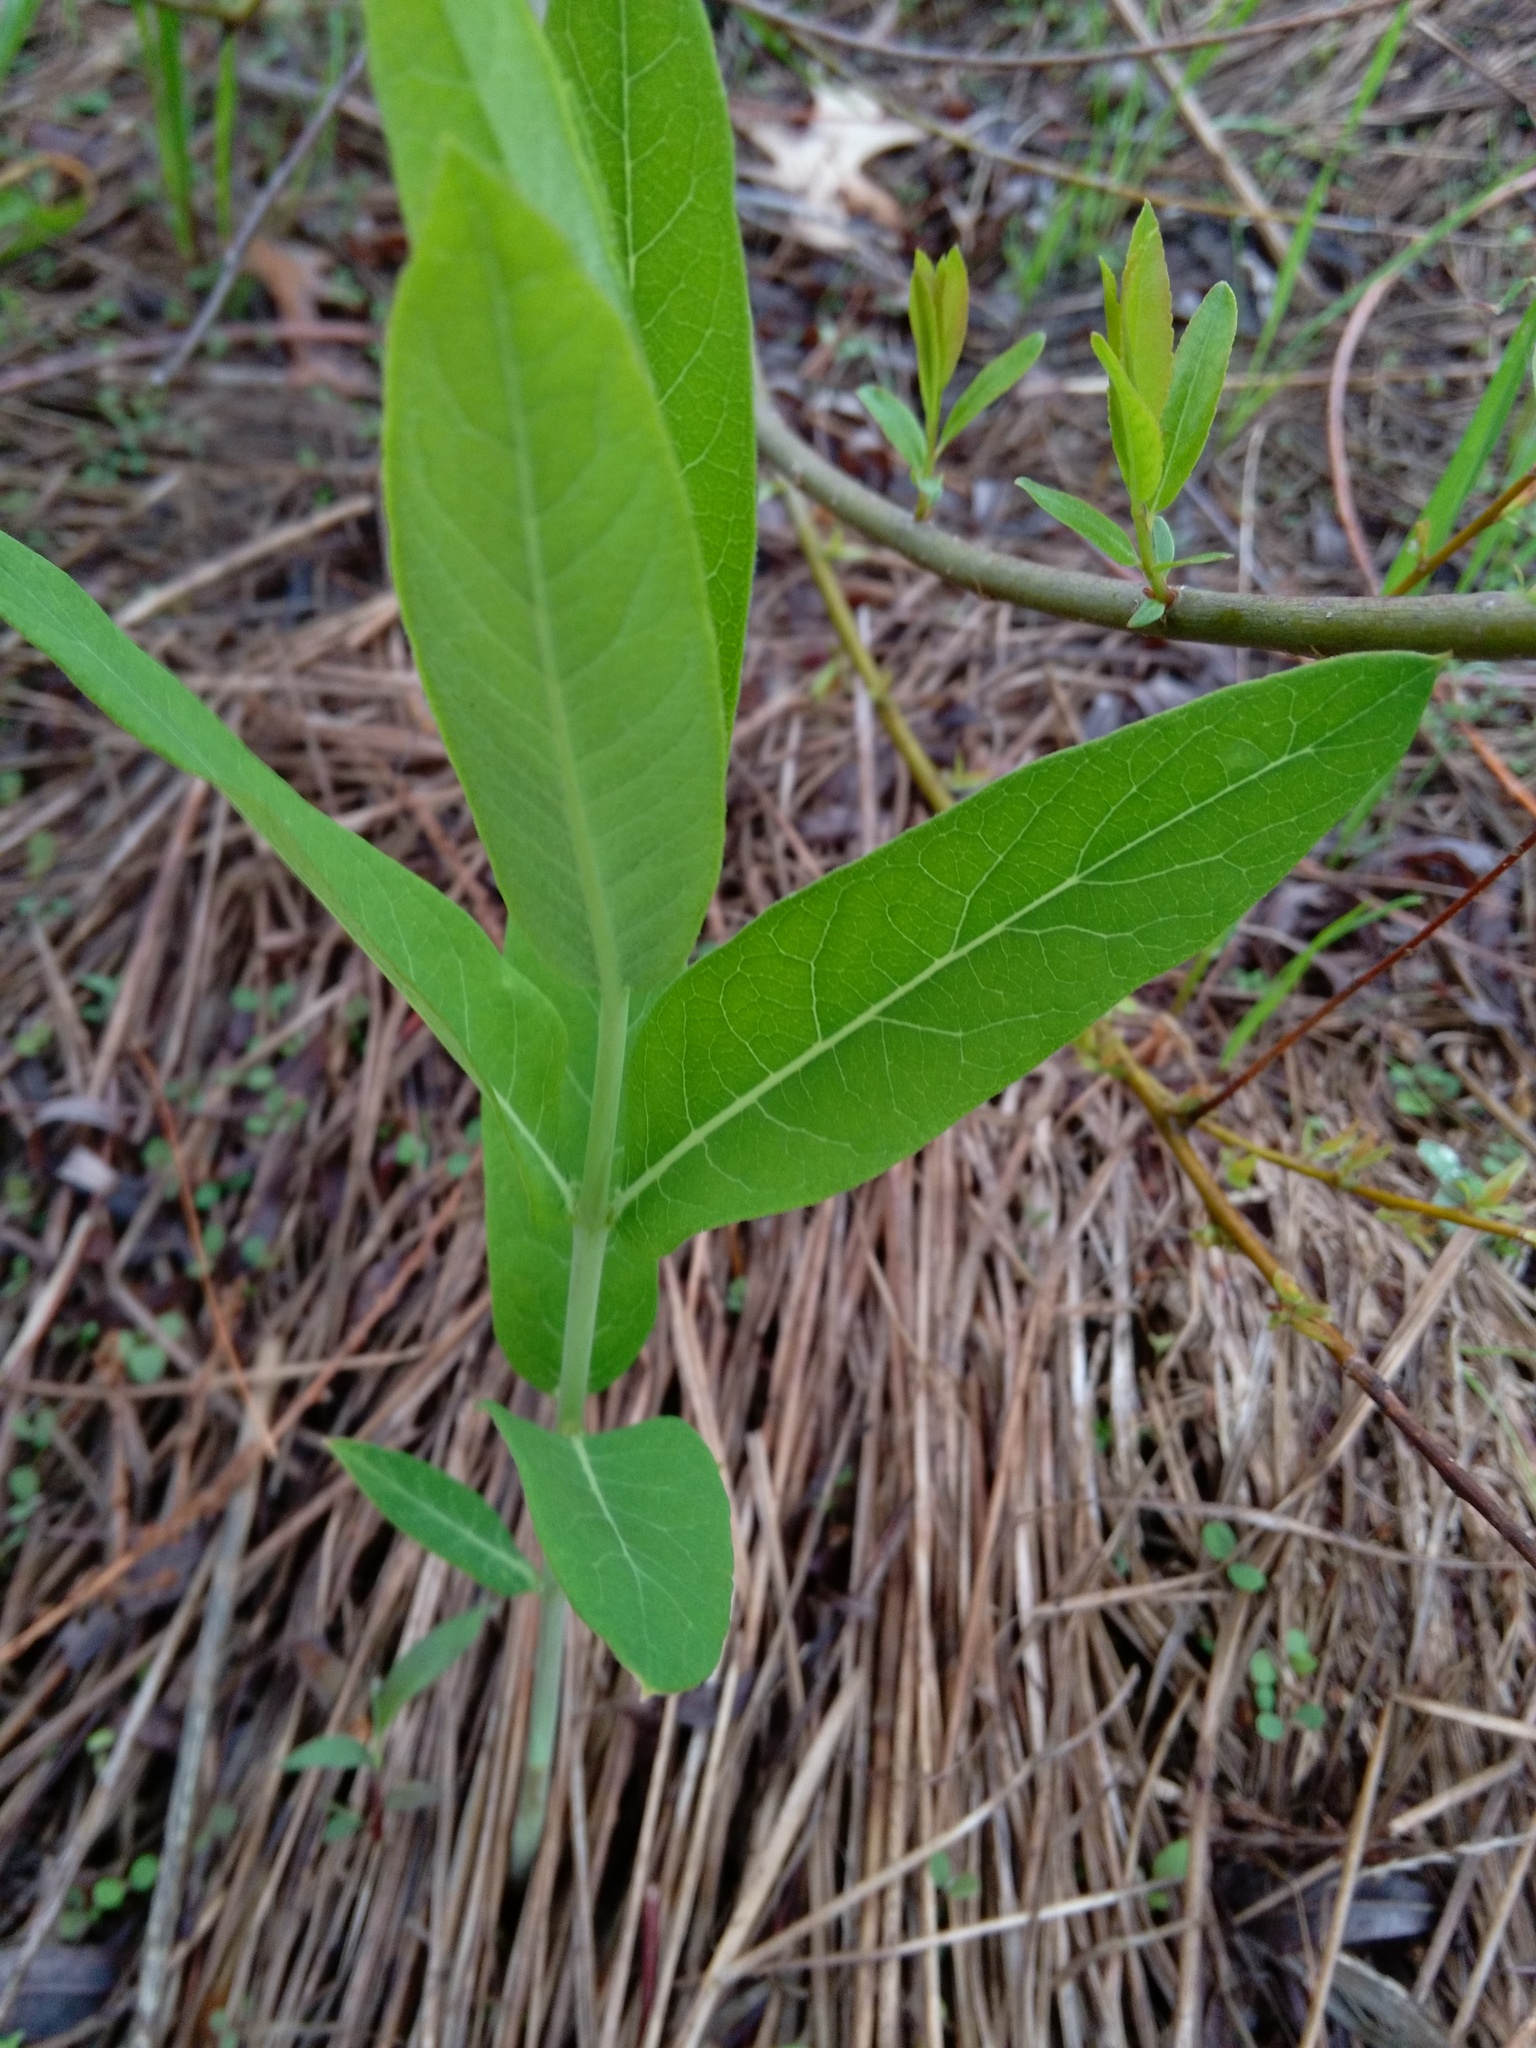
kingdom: Plantae
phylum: Tracheophyta
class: Magnoliopsida
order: Gentianales
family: Apocynaceae
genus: Apocynum
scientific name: Apocynum cannabinum
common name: Hemp dogbane
